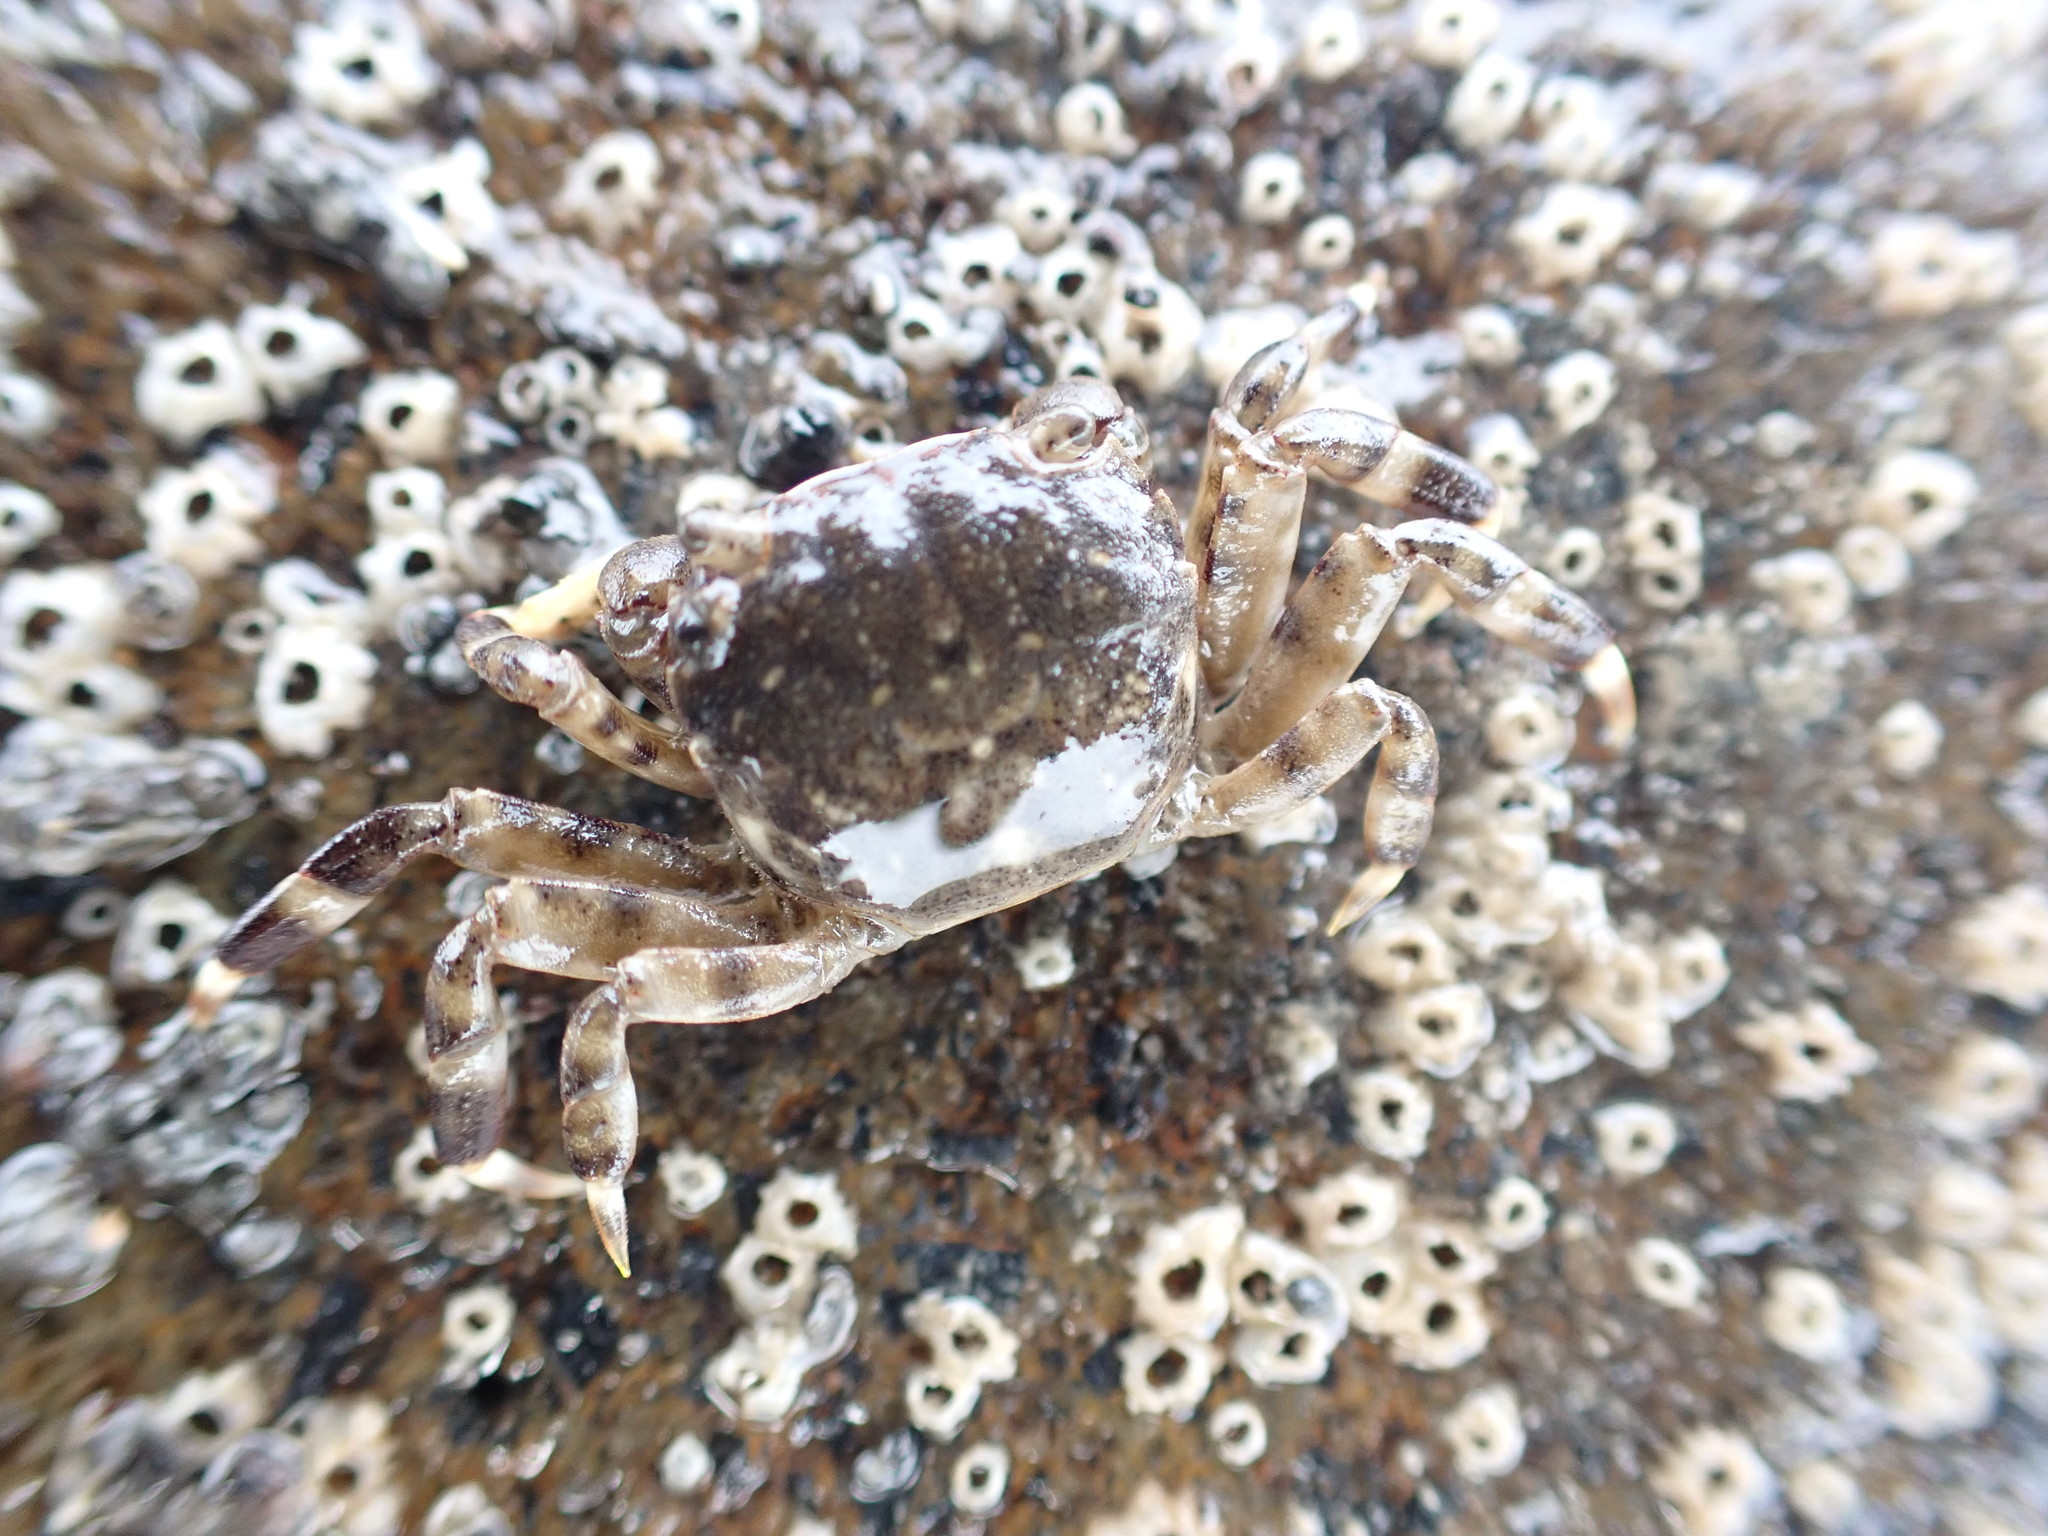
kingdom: Animalia
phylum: Arthropoda
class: Malacostraca
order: Decapoda
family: Varunidae
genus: Hemigrapsus
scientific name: Hemigrapsus sexdentatus
